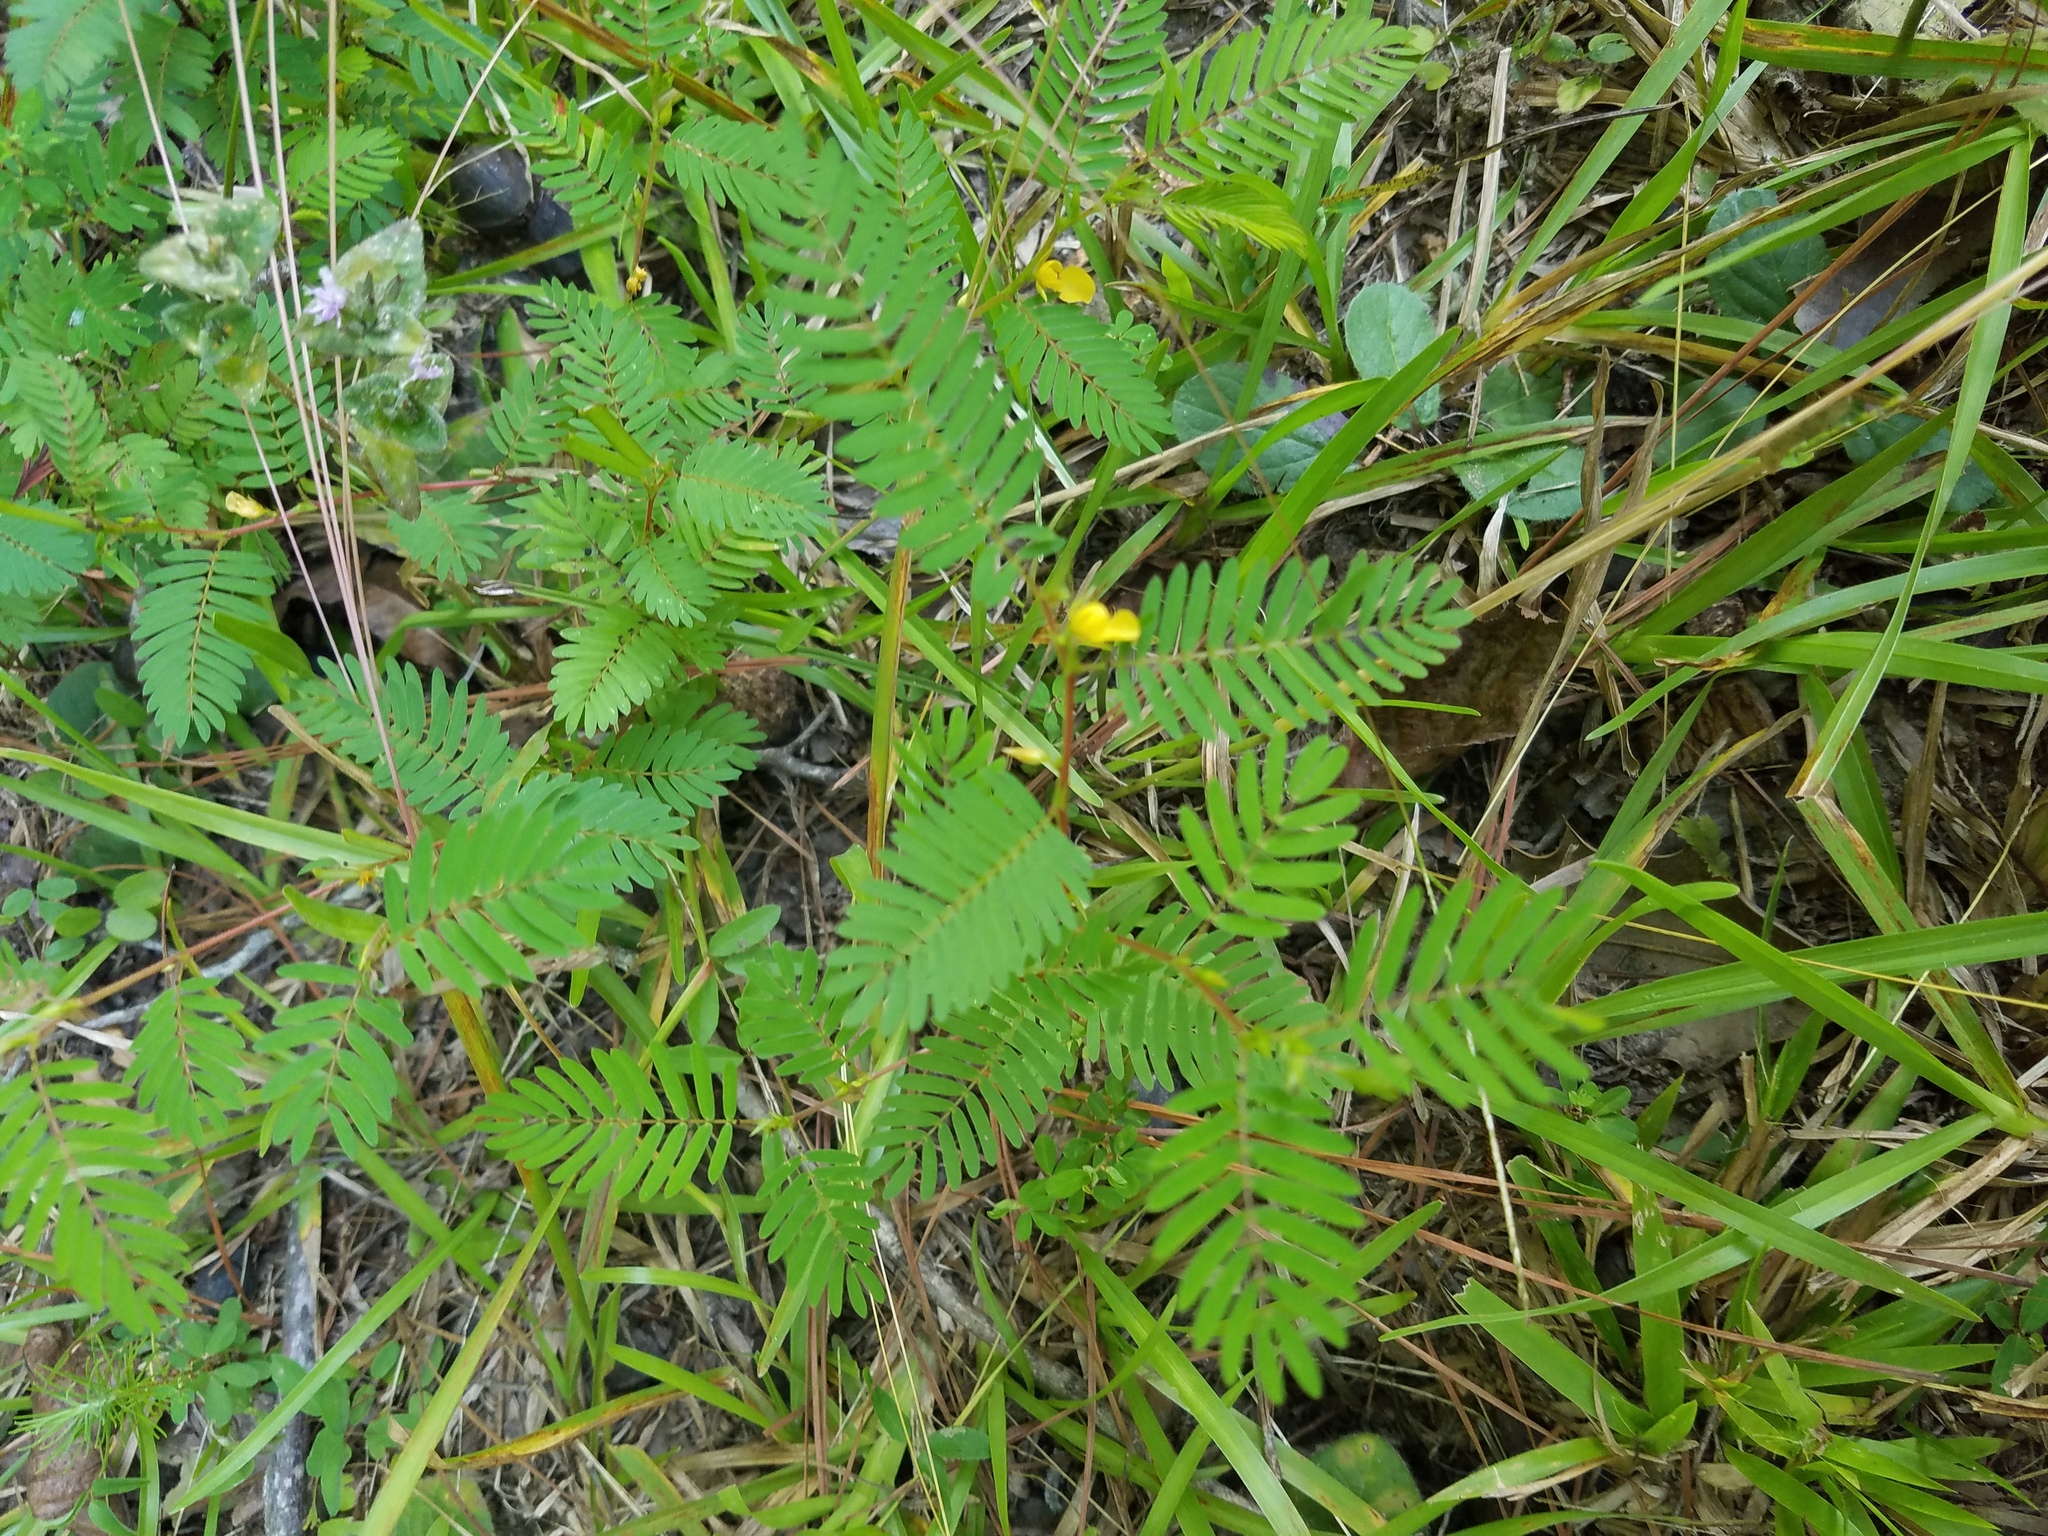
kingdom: Plantae
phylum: Tracheophyta
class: Magnoliopsida
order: Fabales
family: Fabaceae
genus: Chamaecrista
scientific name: Chamaecrista nictitans
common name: Sensitive cassia
